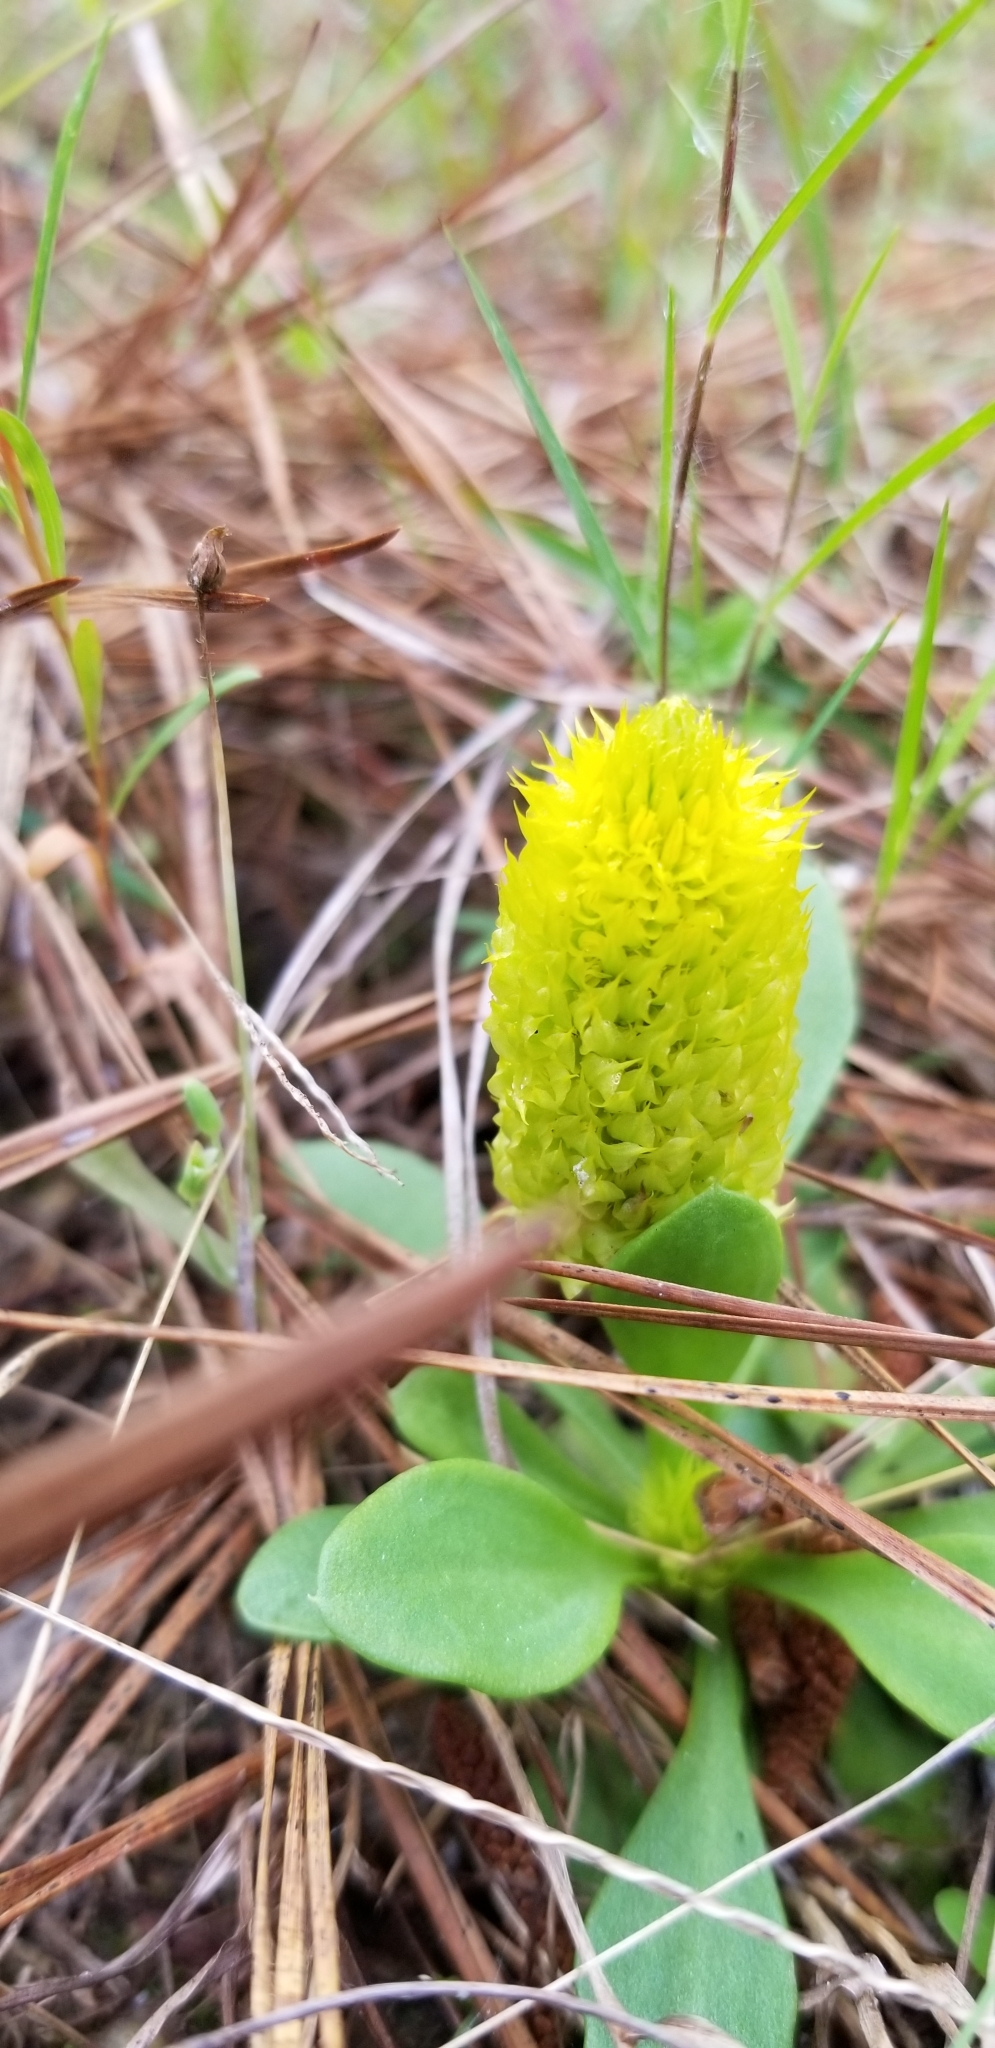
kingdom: Plantae
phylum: Tracheophyta
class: Magnoliopsida
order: Fabales
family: Polygalaceae
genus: Polygala
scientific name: Polygala nana
